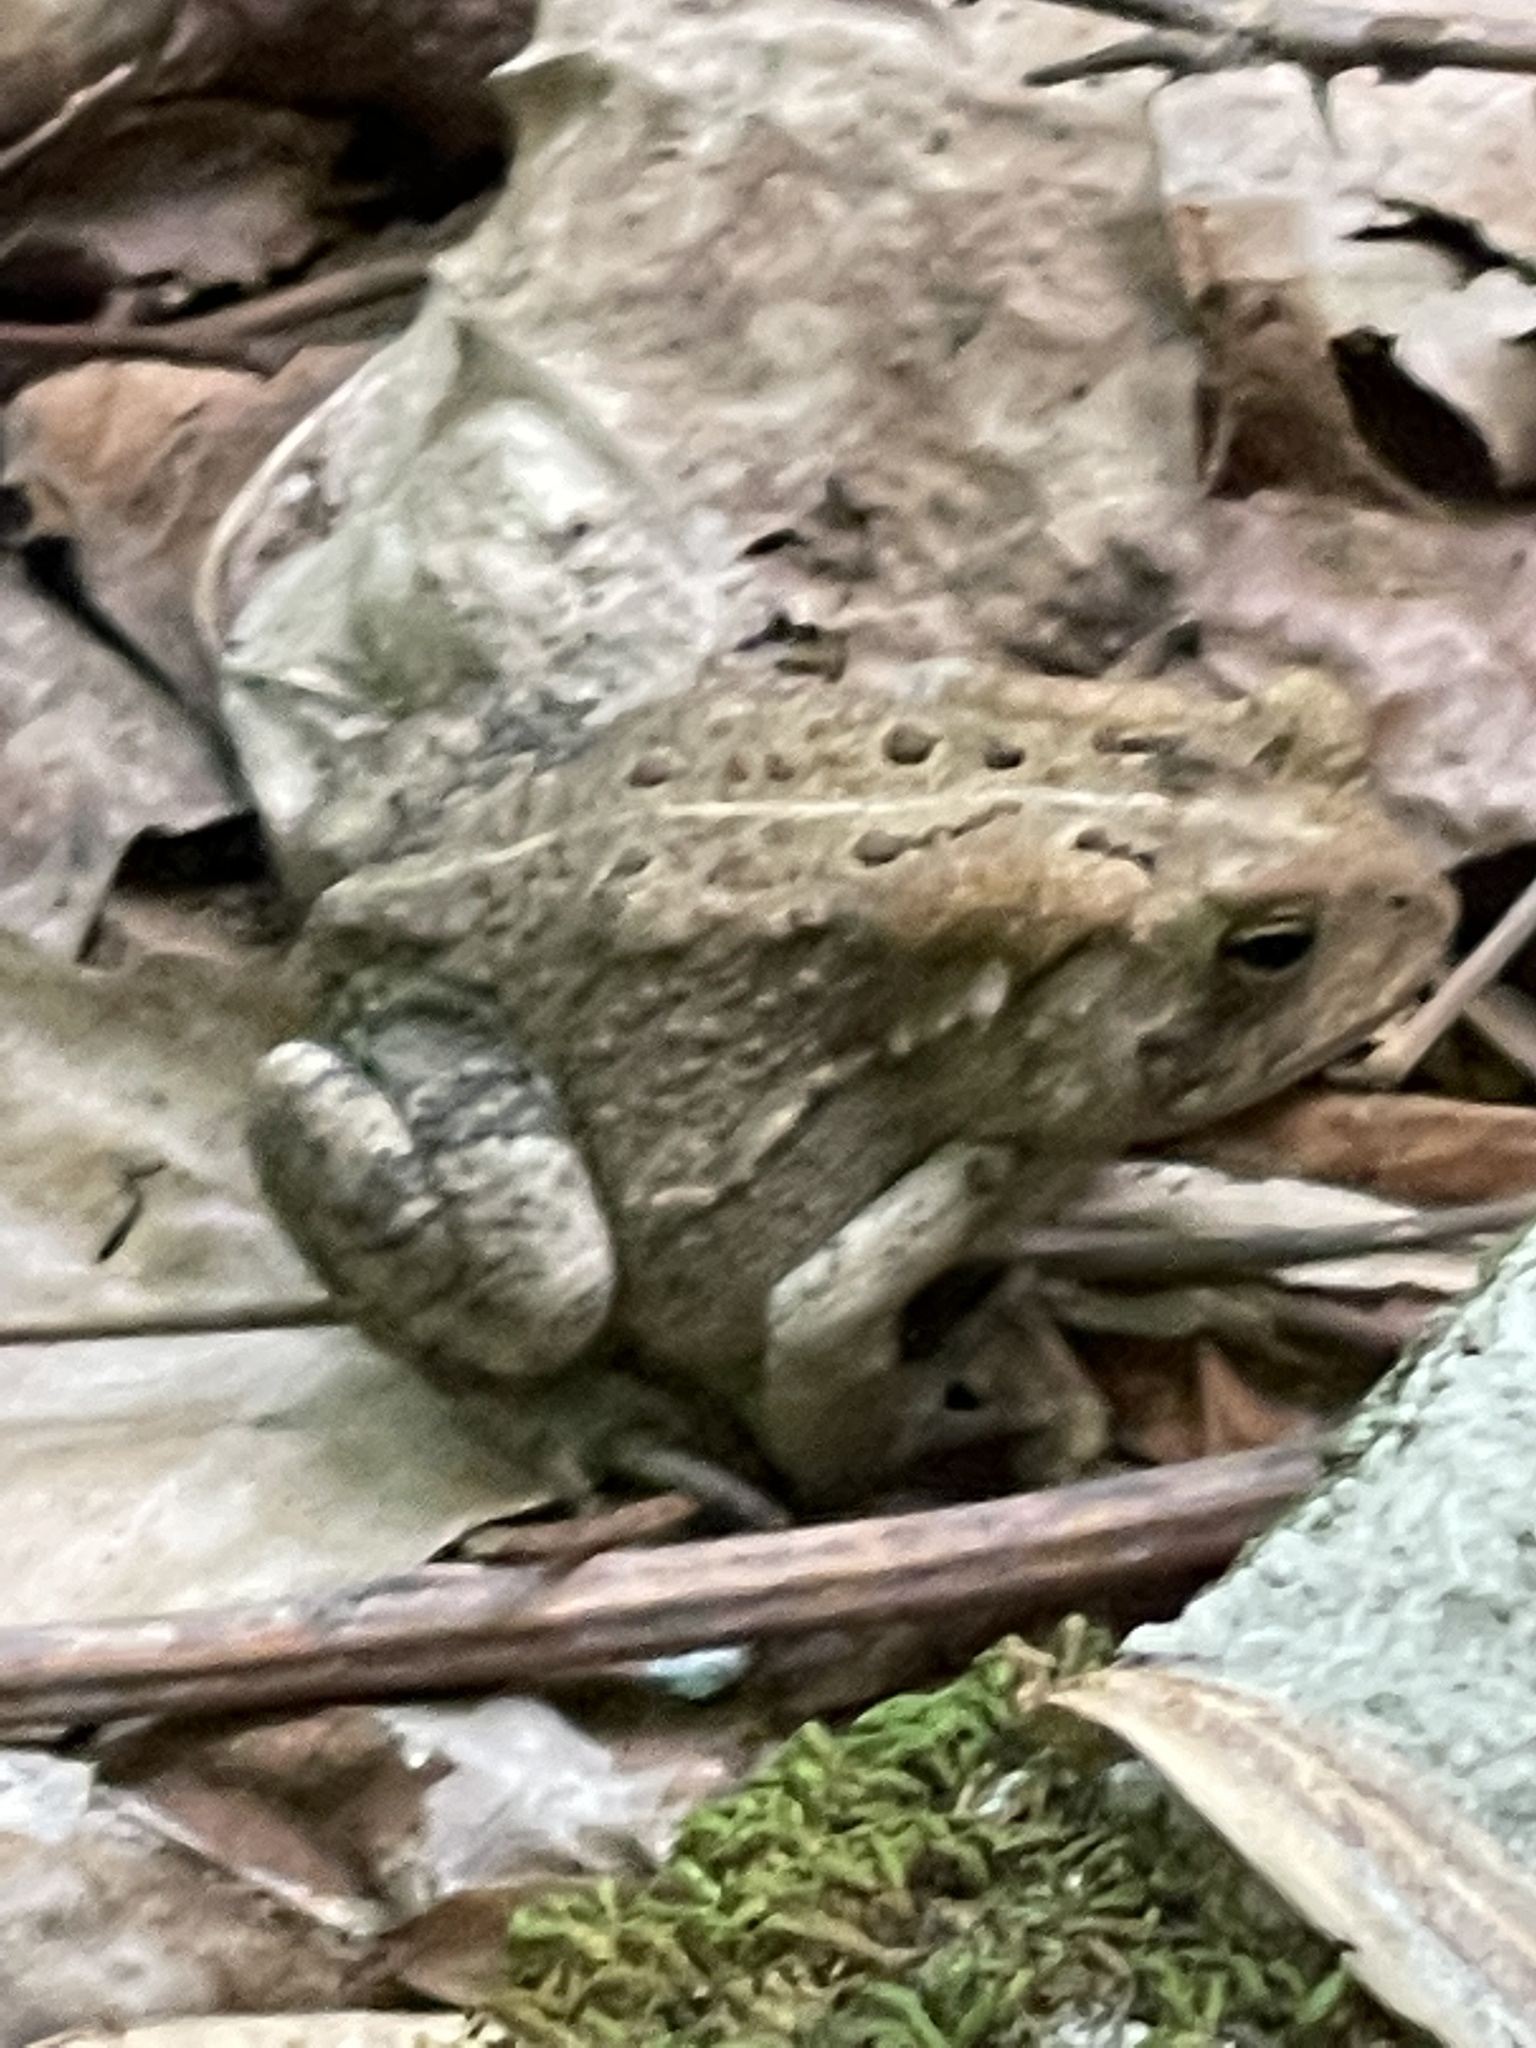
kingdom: Animalia
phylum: Chordata
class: Amphibia
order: Anura
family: Bufonidae
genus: Anaxyrus
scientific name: Anaxyrus americanus
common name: American toad
